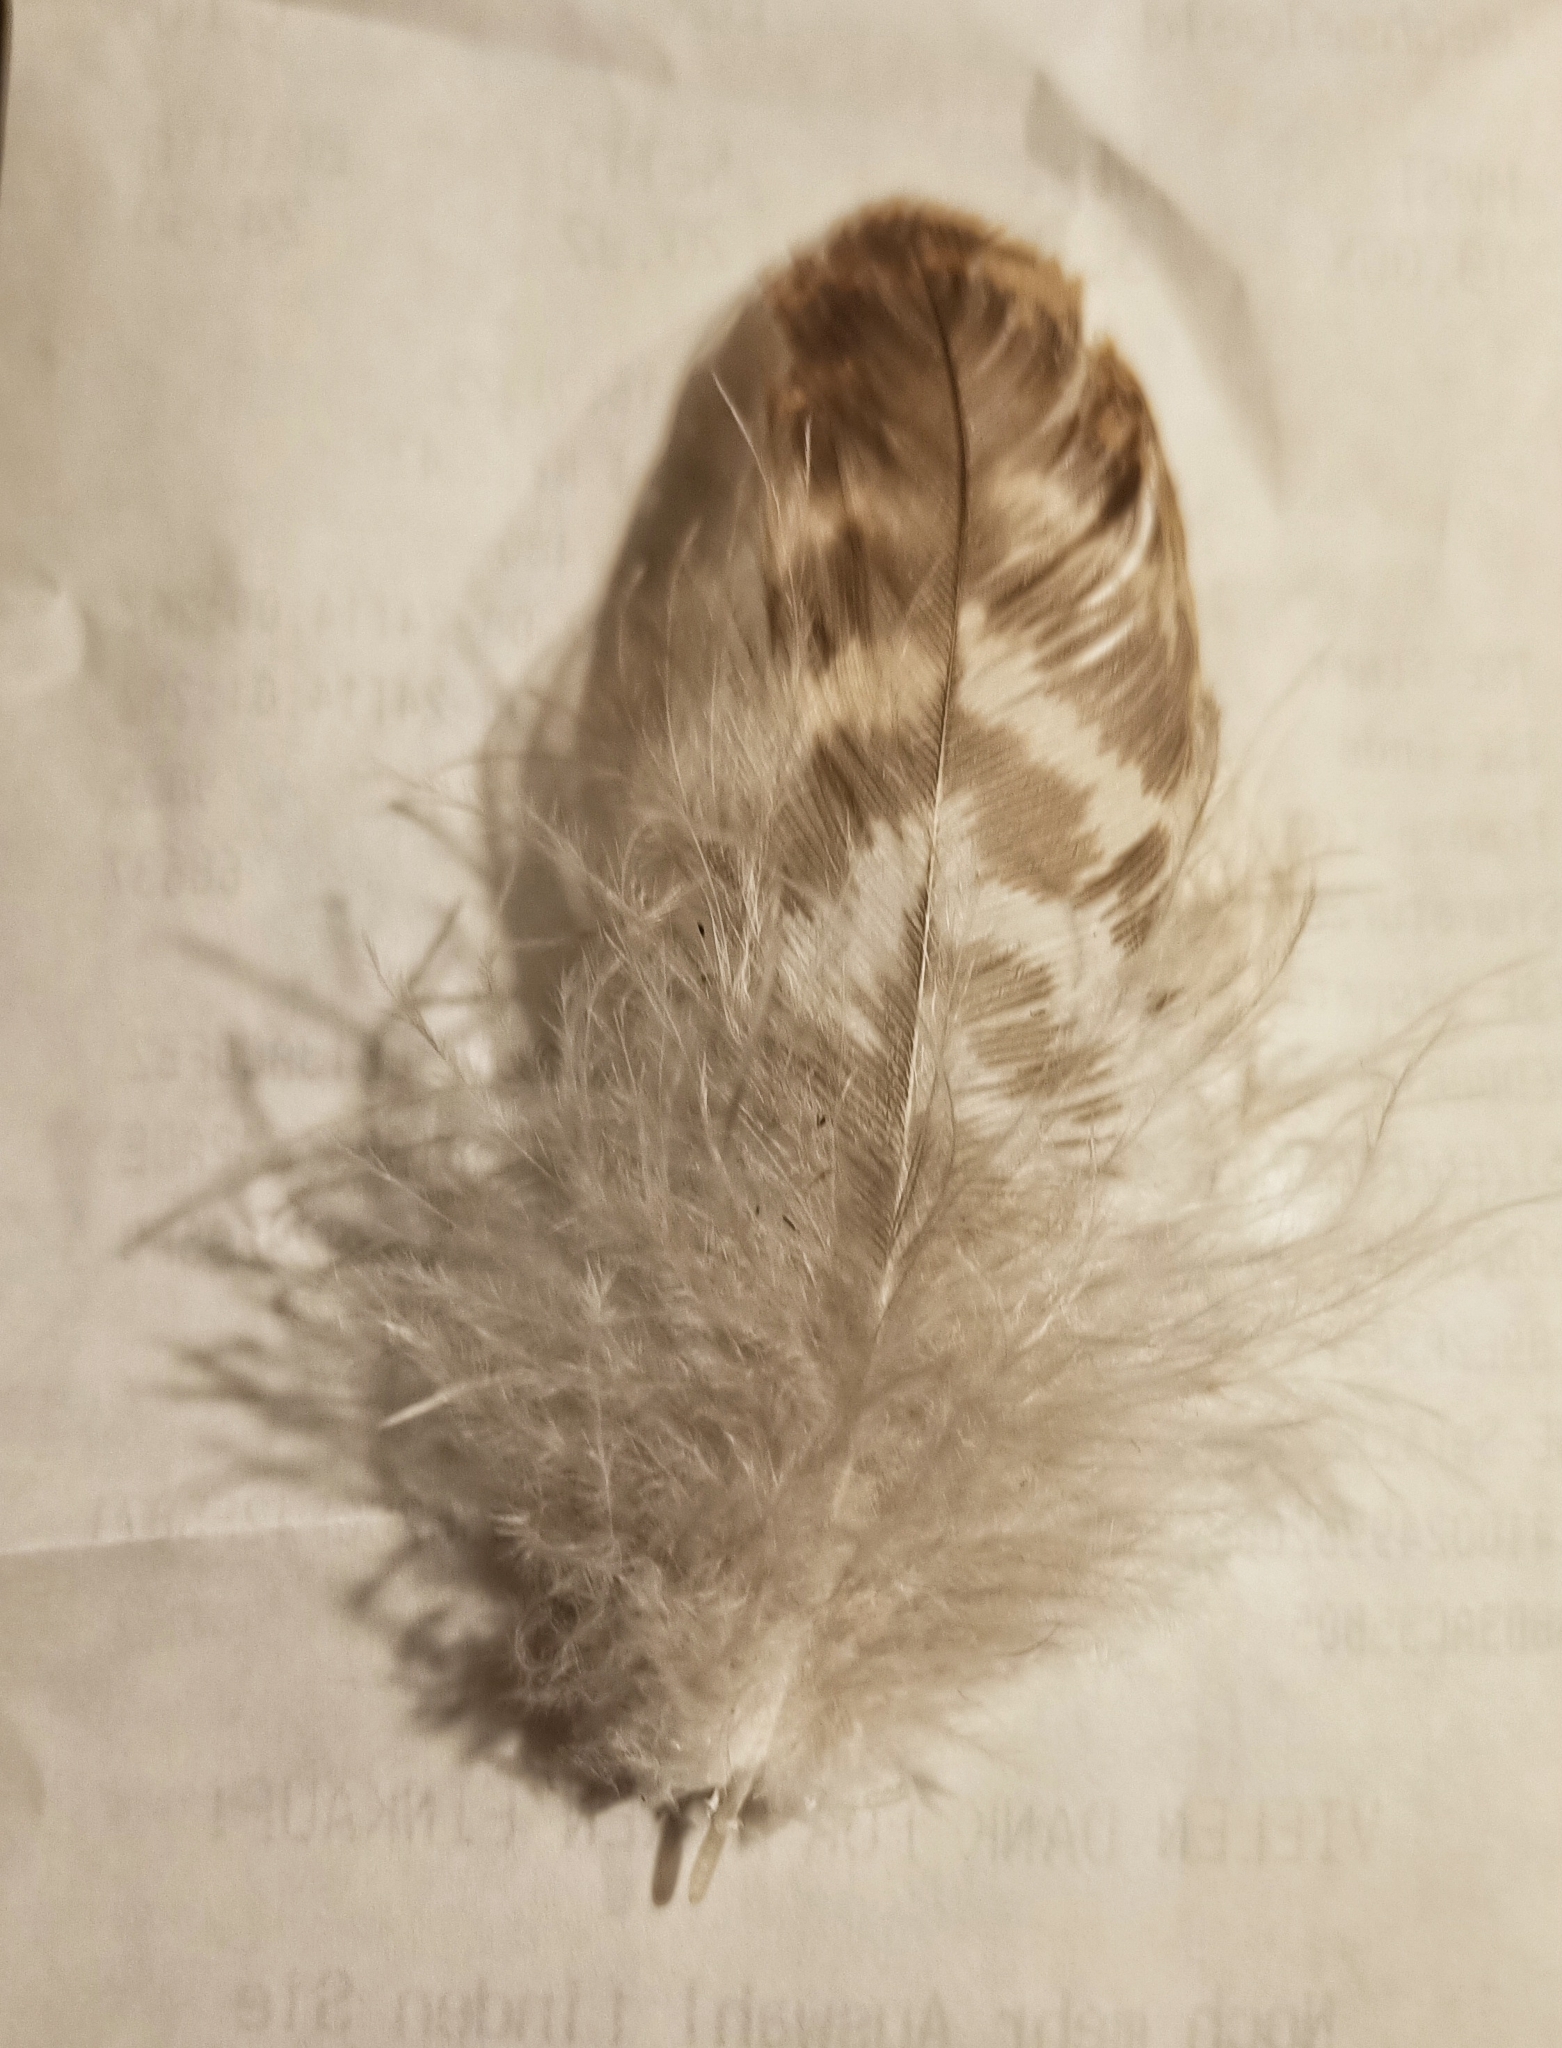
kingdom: Animalia
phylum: Chordata
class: Aves
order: Accipitriformes
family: Accipitridae
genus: Buteo
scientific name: Buteo buteo
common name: Common buzzard
